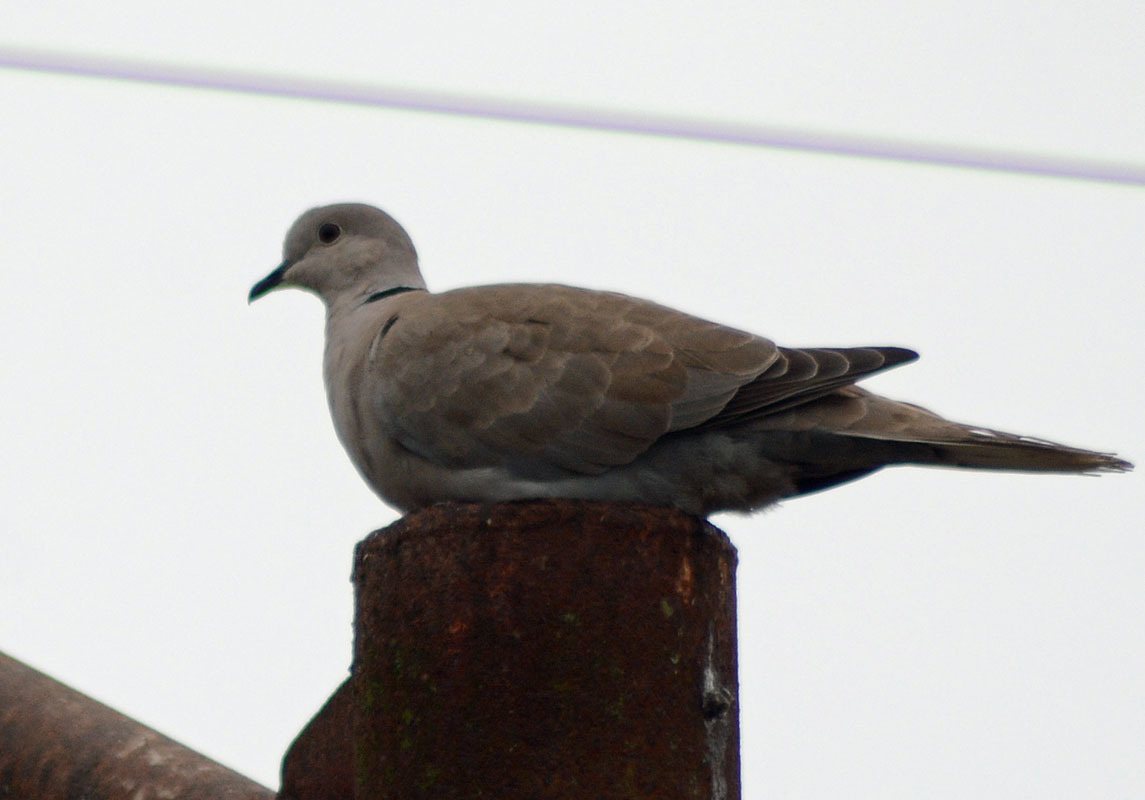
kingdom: Animalia
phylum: Chordata
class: Aves
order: Columbiformes
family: Columbidae
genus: Streptopelia
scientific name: Streptopelia decaocto
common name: Eurasian collared dove
